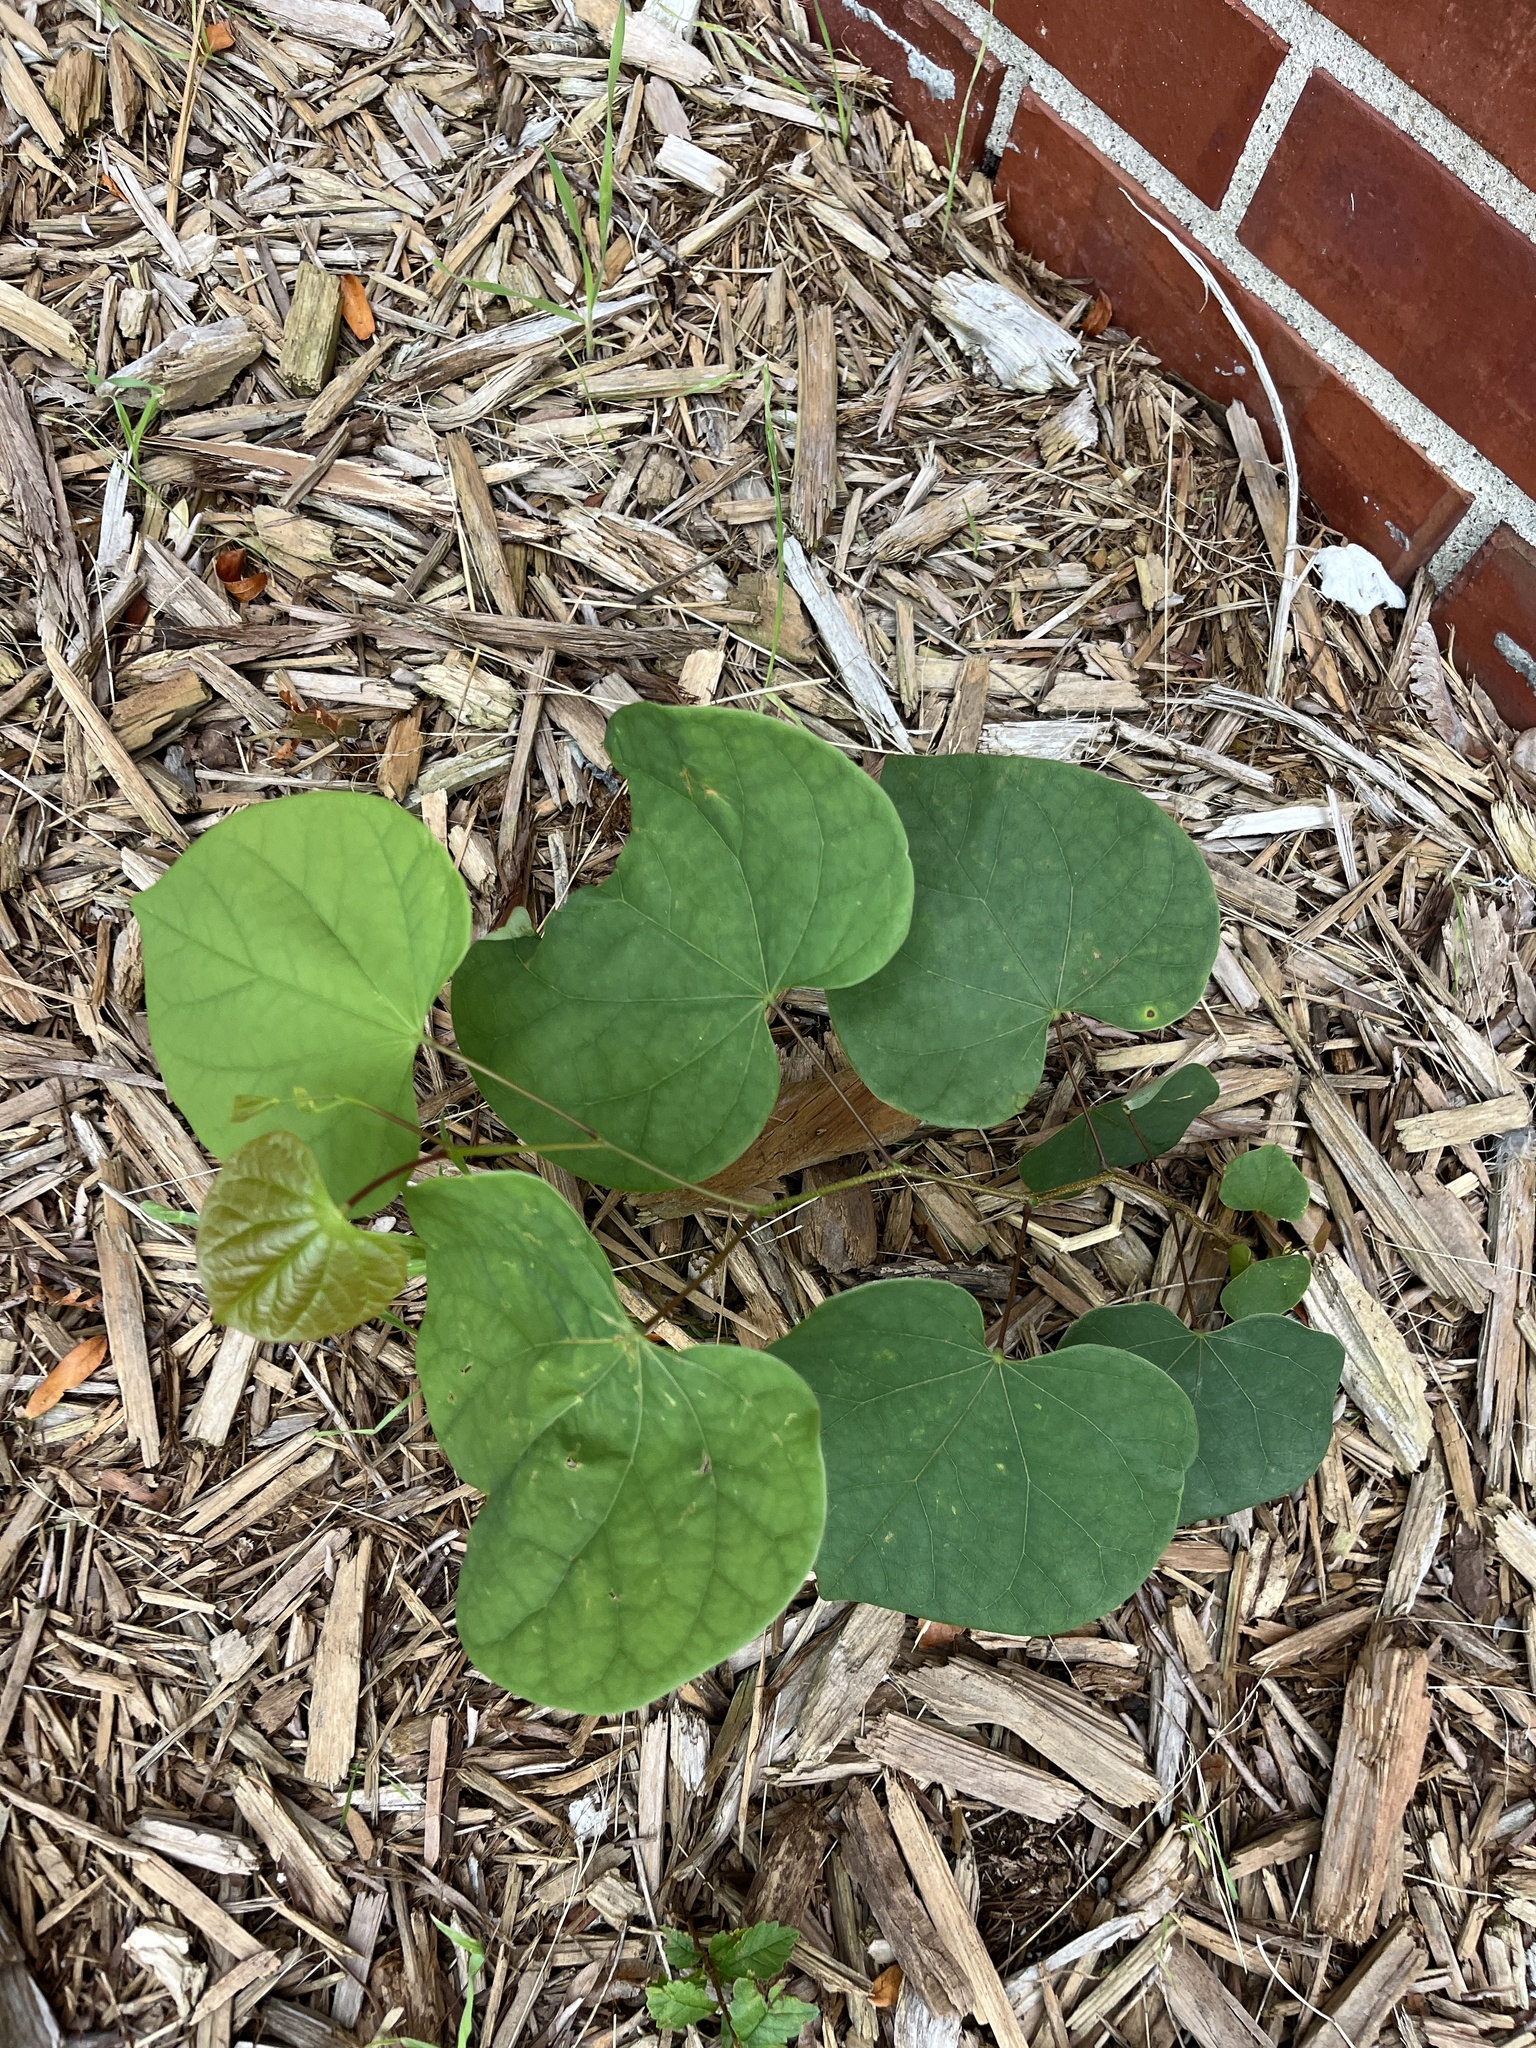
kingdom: Plantae
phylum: Tracheophyta
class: Magnoliopsida
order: Fabales
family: Fabaceae
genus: Cercis
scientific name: Cercis canadensis
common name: Eastern redbud
